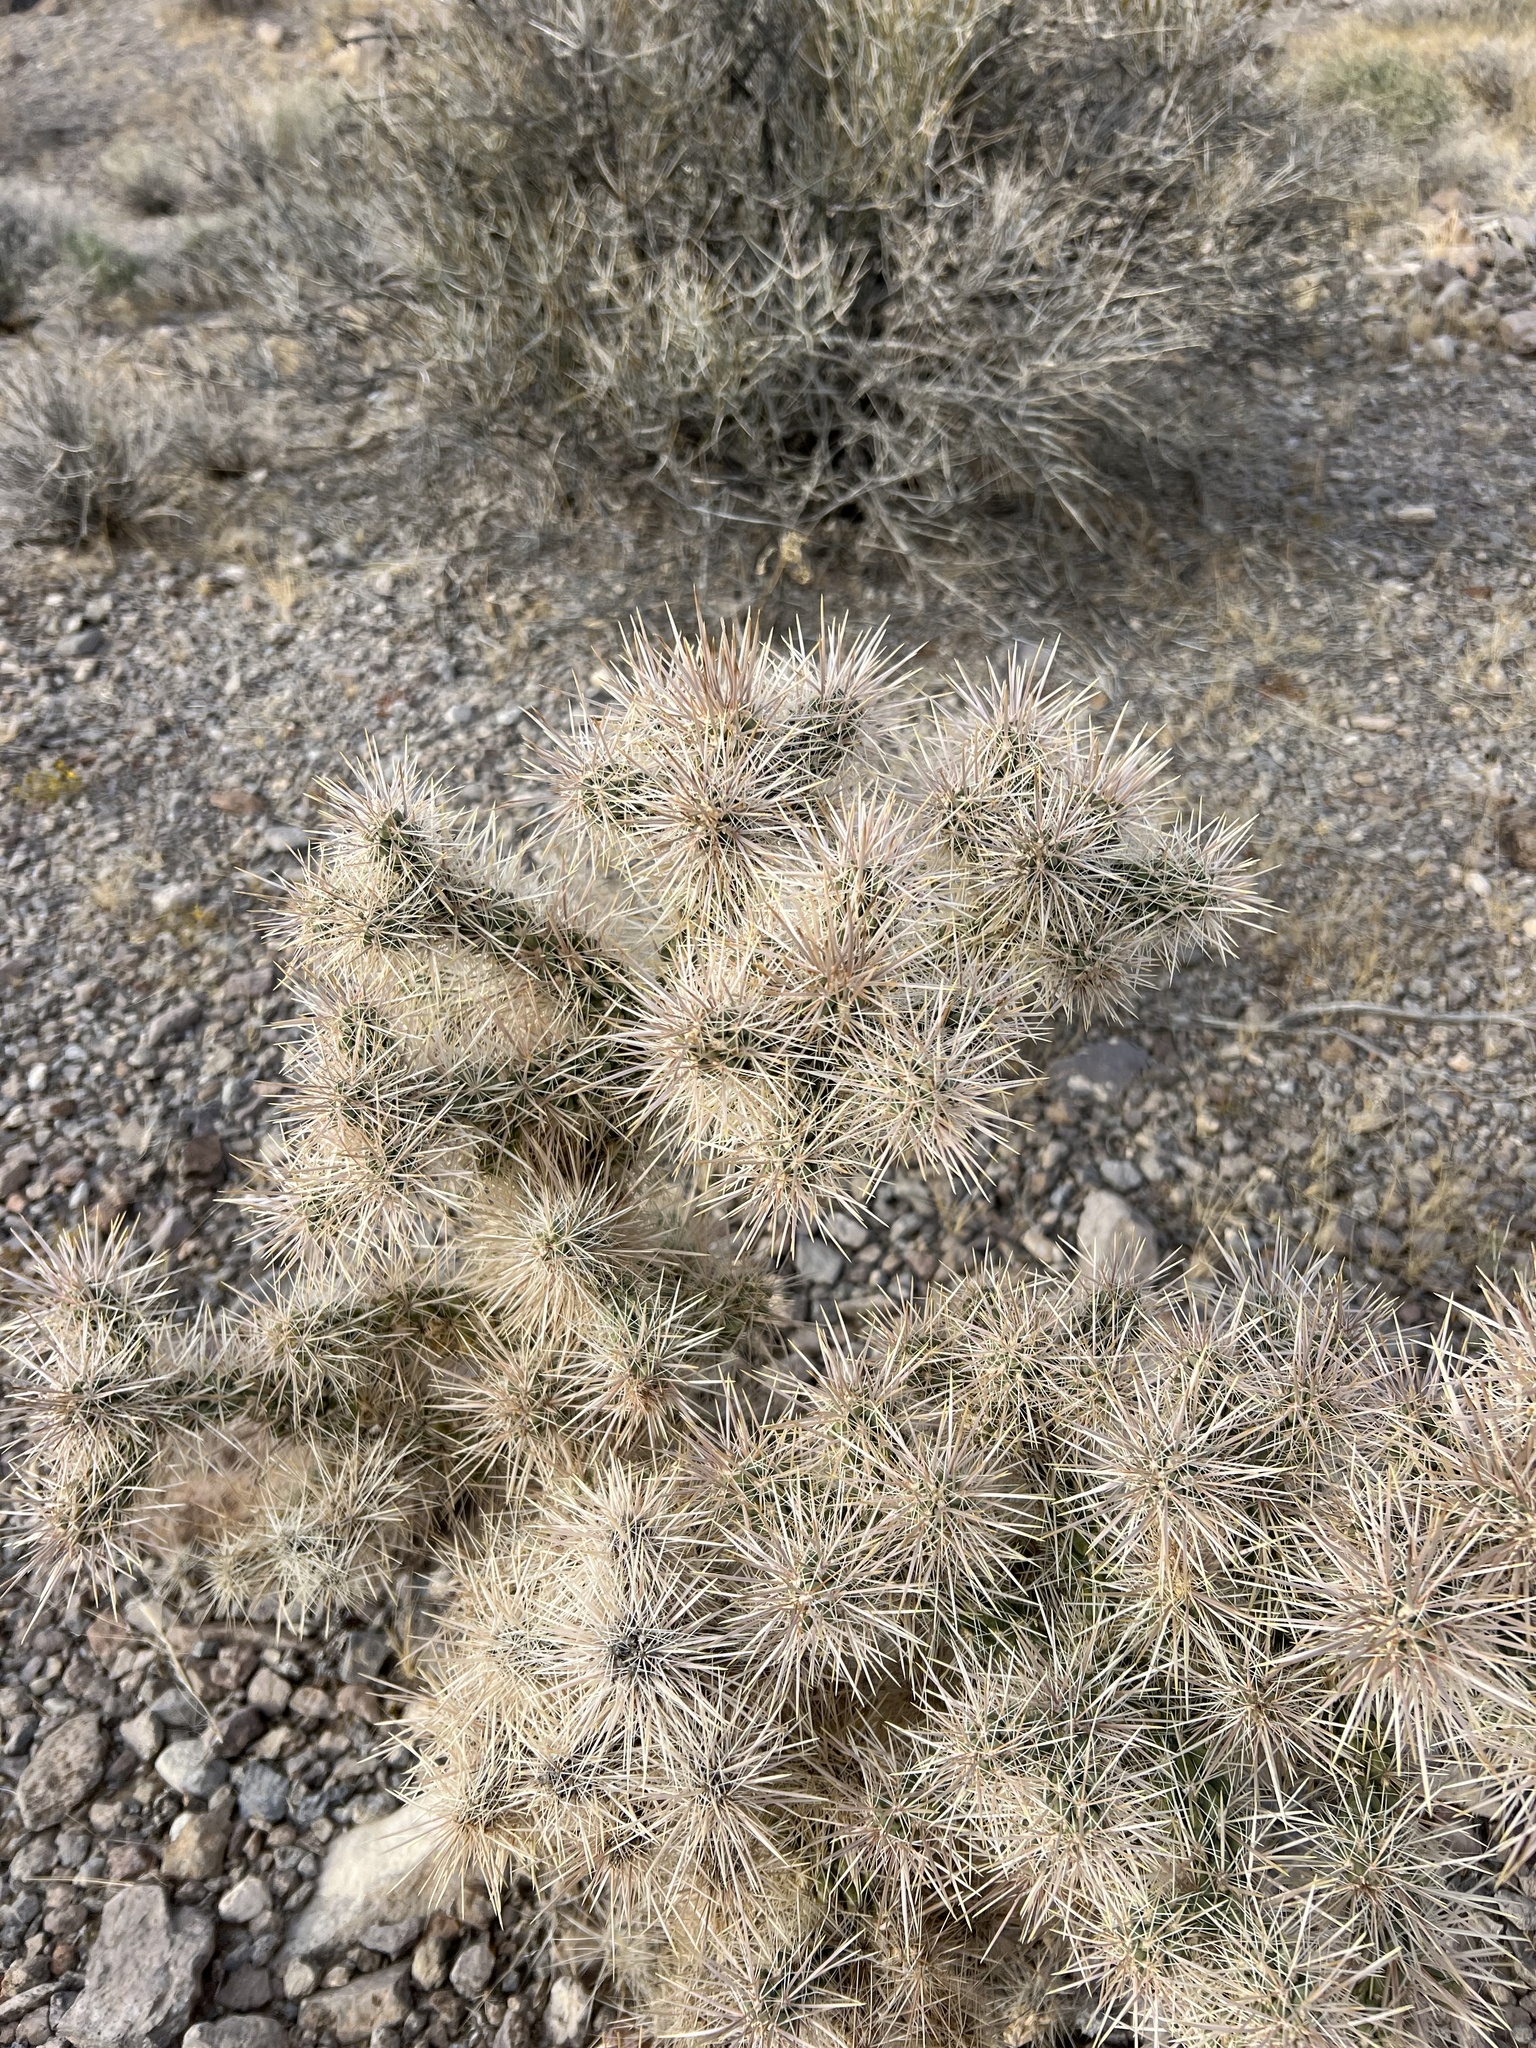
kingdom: Plantae
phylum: Tracheophyta
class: Magnoliopsida
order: Caryophyllales
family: Cactaceae
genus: Cylindropuntia
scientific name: Cylindropuntia echinocarpa
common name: Ground cholla
